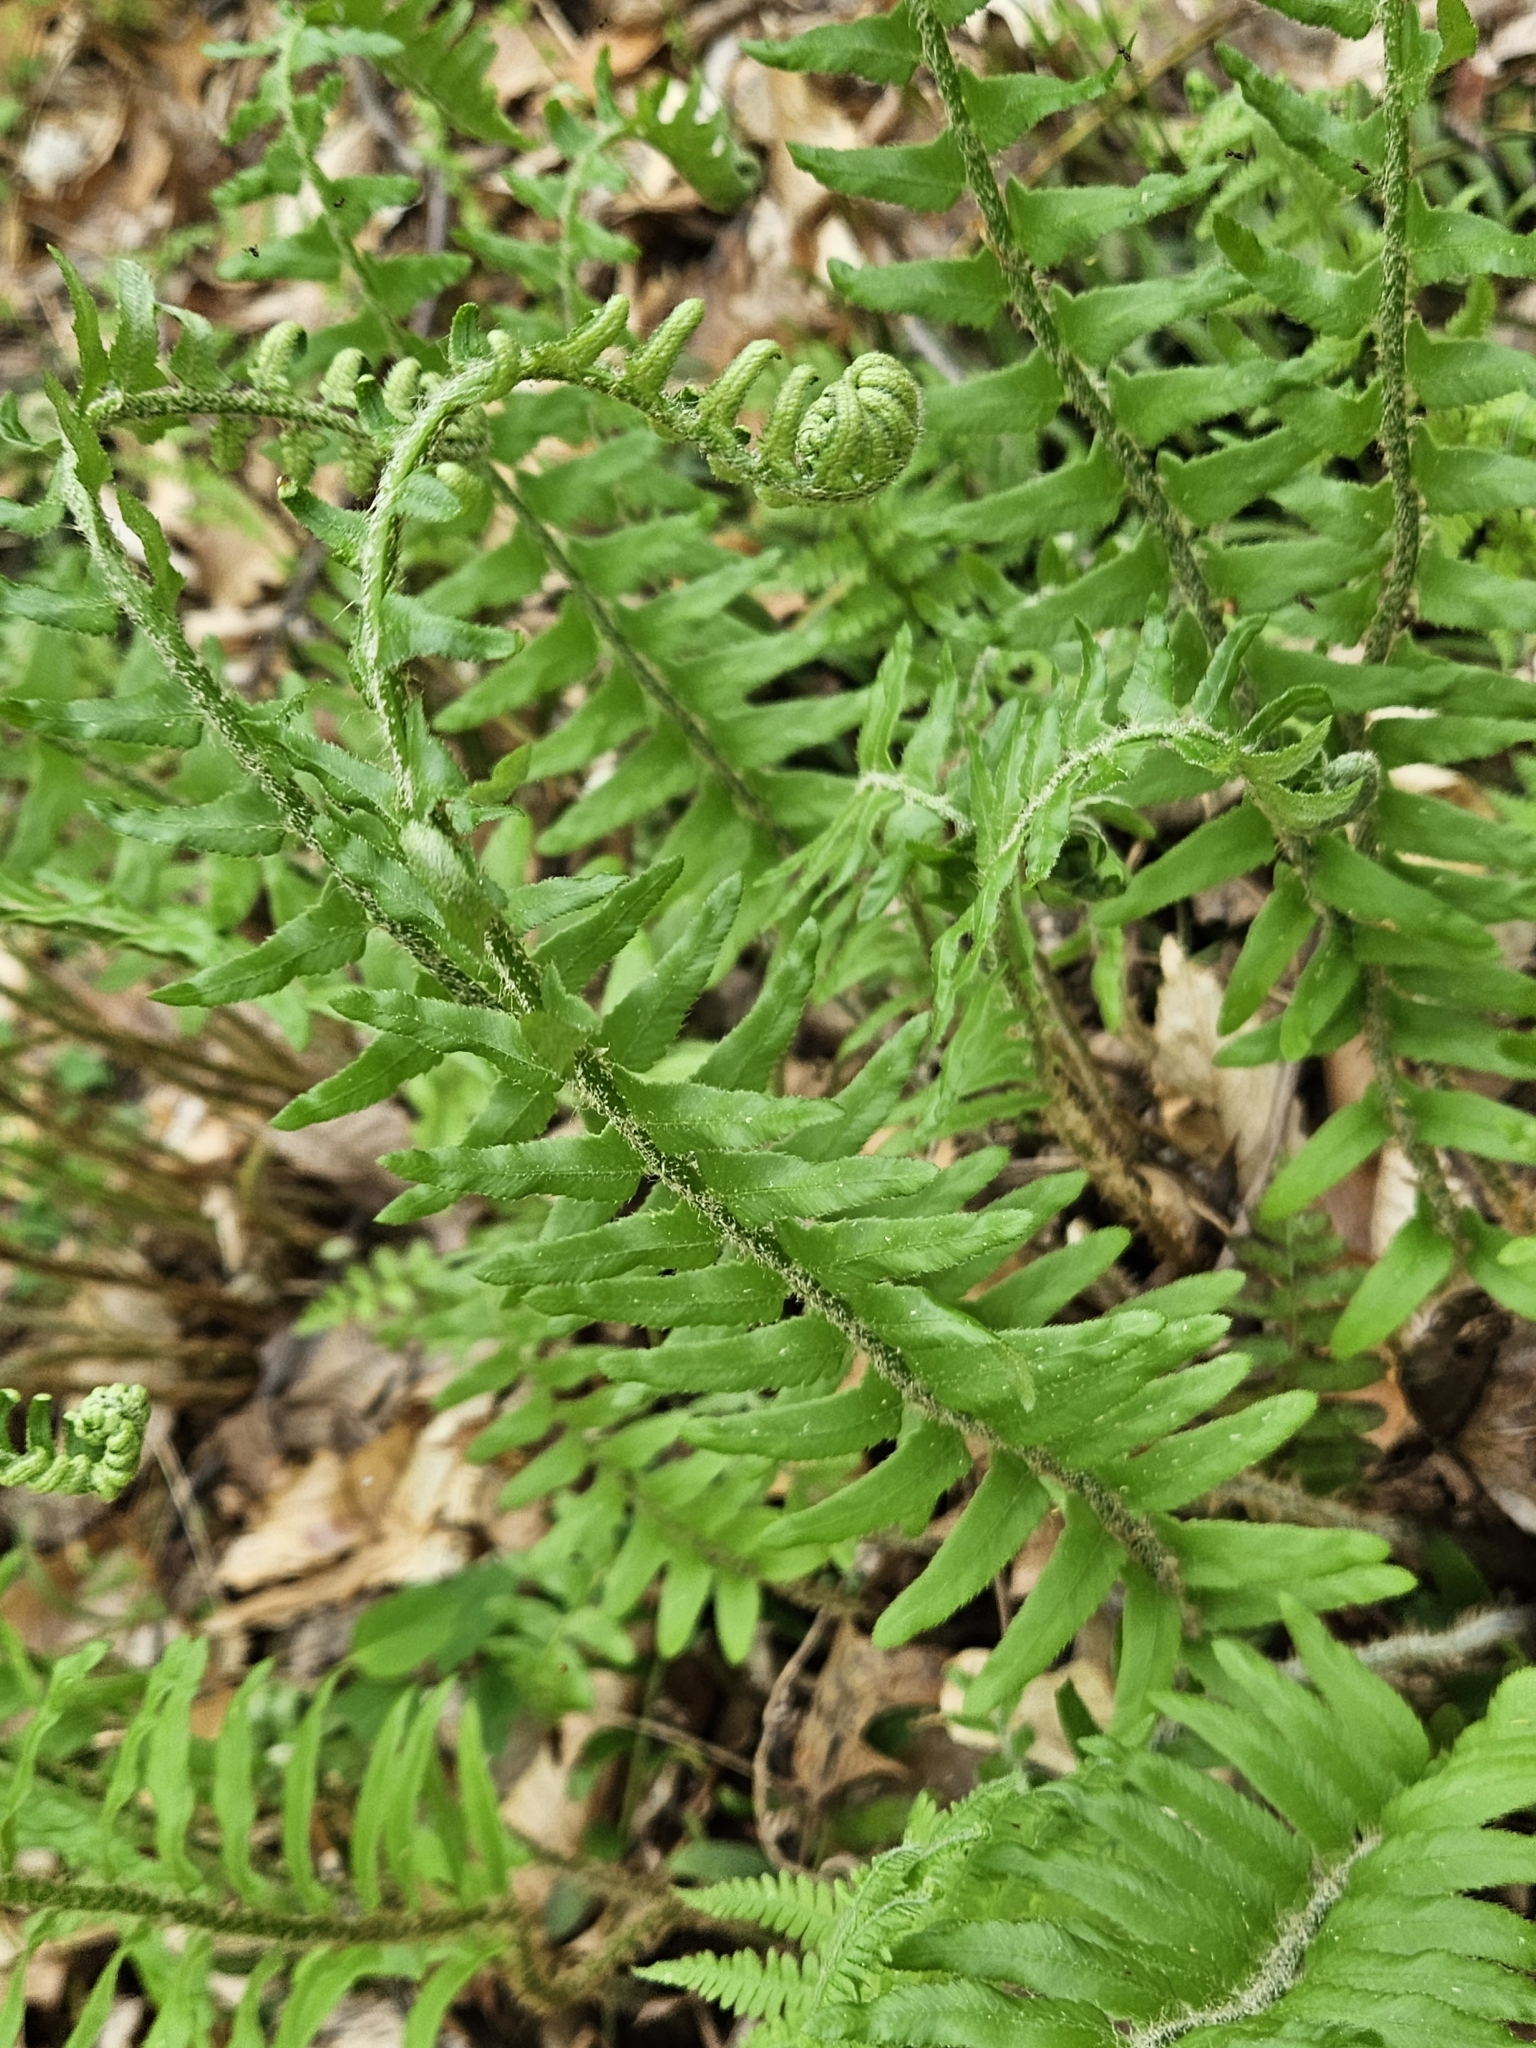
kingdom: Plantae
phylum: Tracheophyta
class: Polypodiopsida
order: Polypodiales
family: Dryopteridaceae
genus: Polystichum
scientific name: Polystichum acrostichoides
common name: Christmas fern
